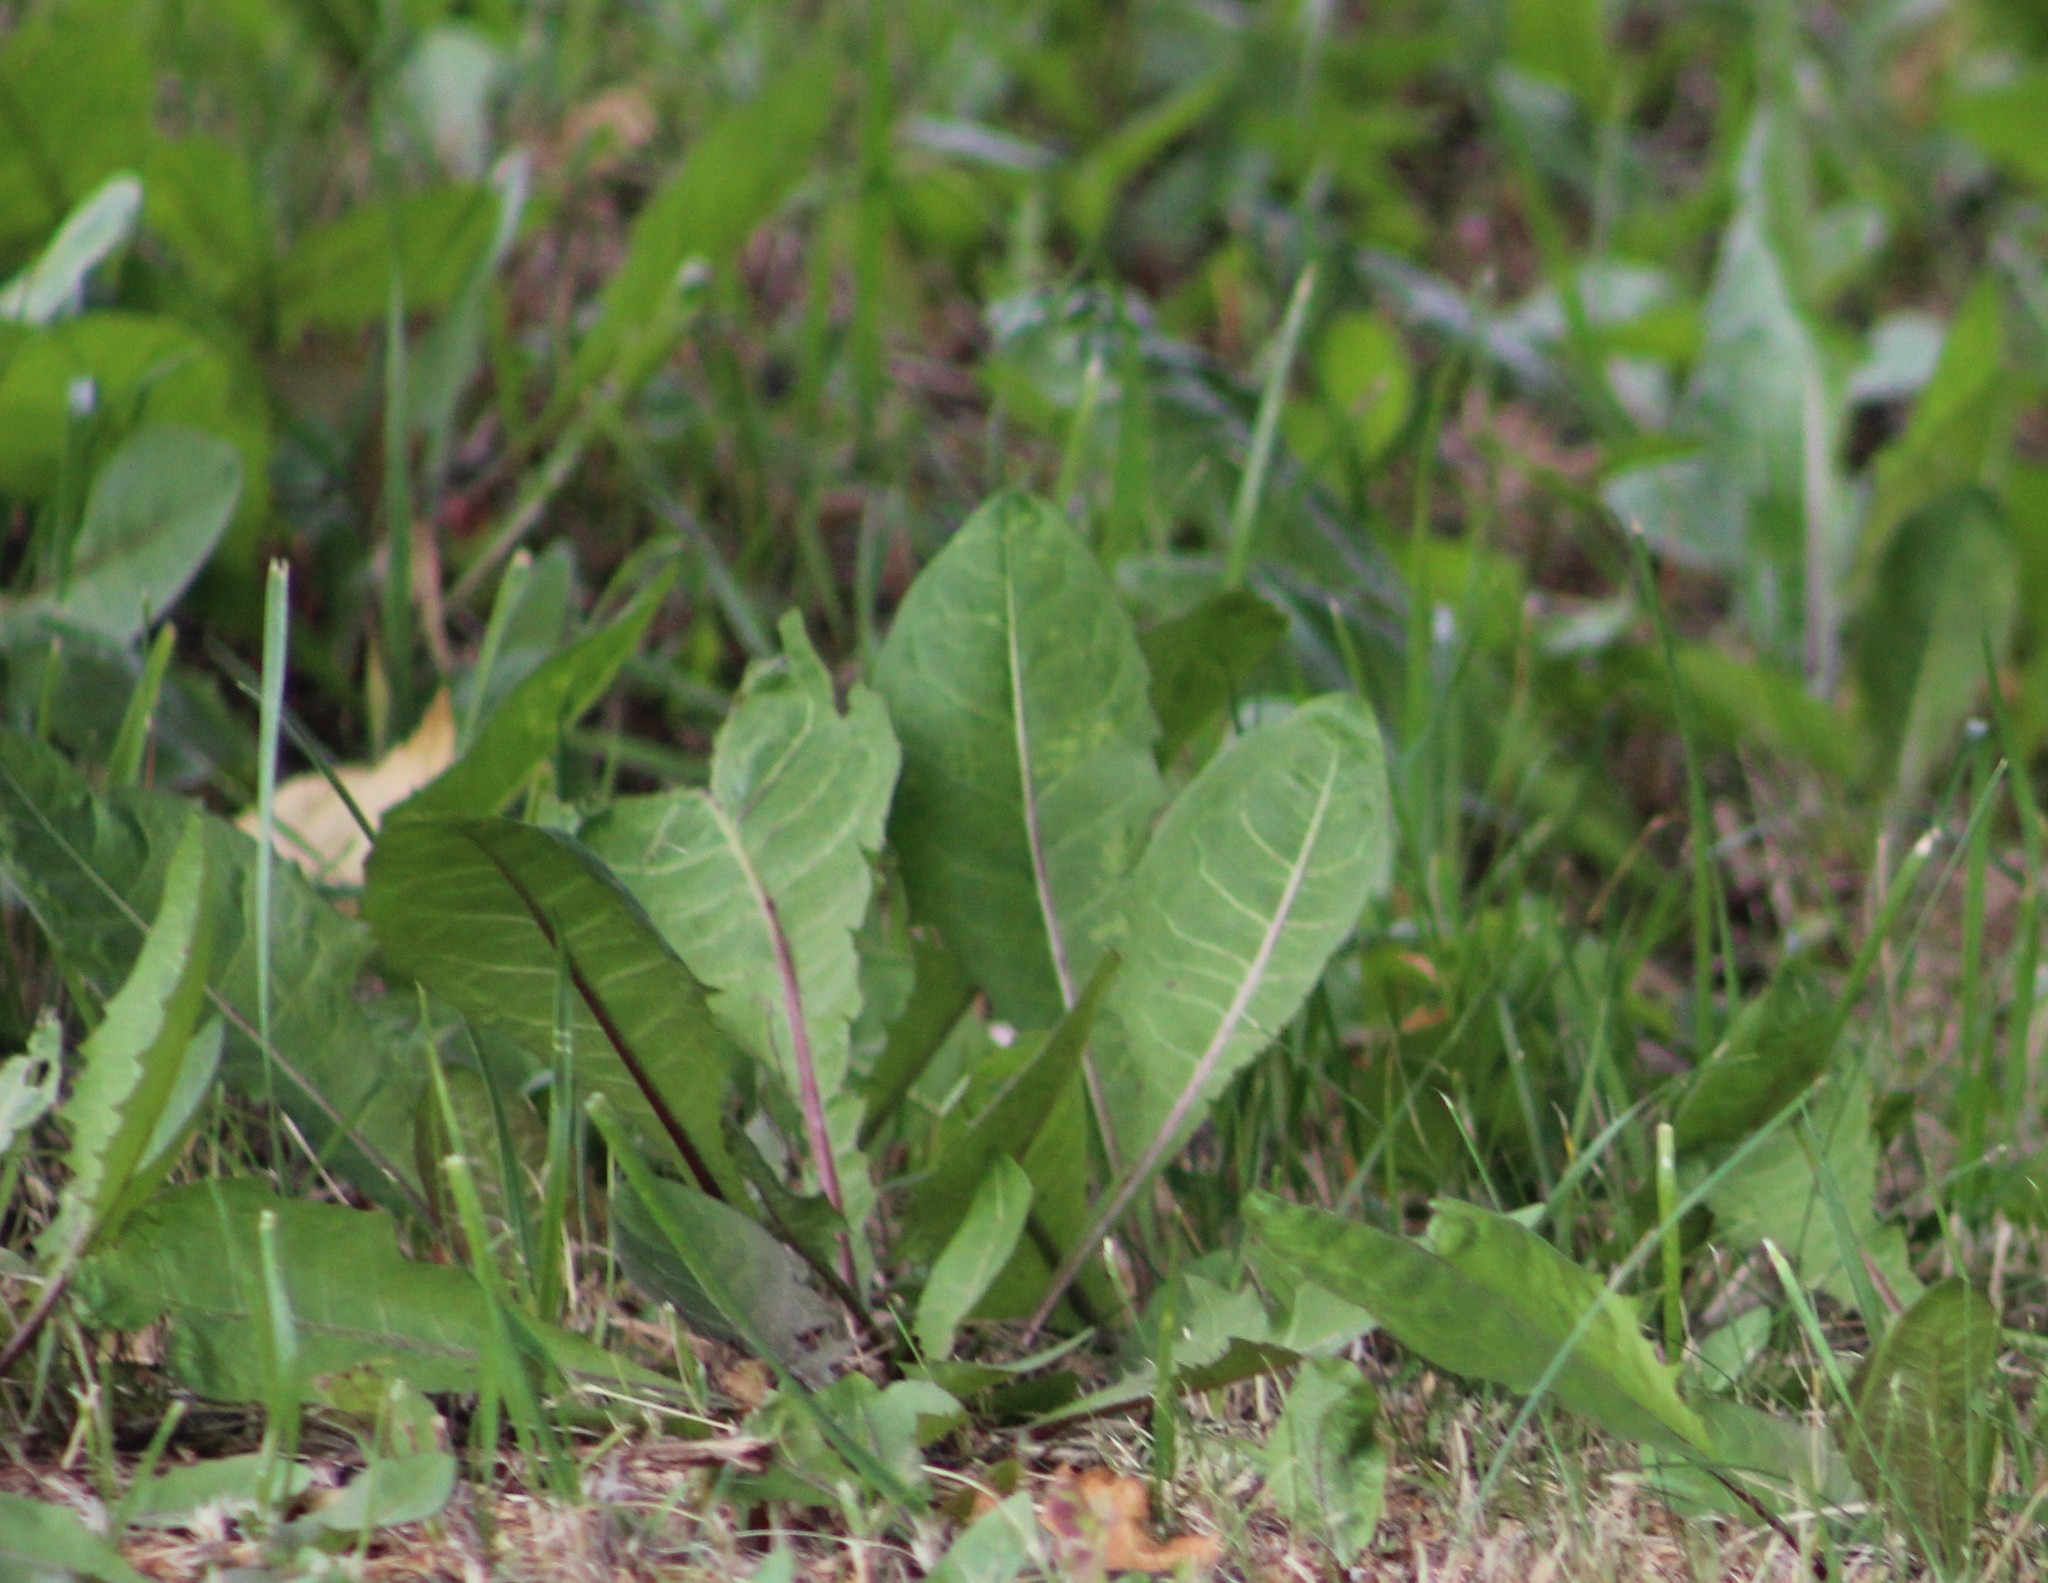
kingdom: Plantae
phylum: Tracheophyta
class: Magnoliopsida
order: Asterales
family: Asteraceae
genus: Taraxacum
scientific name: Taraxacum officinale
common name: Common dandelion
